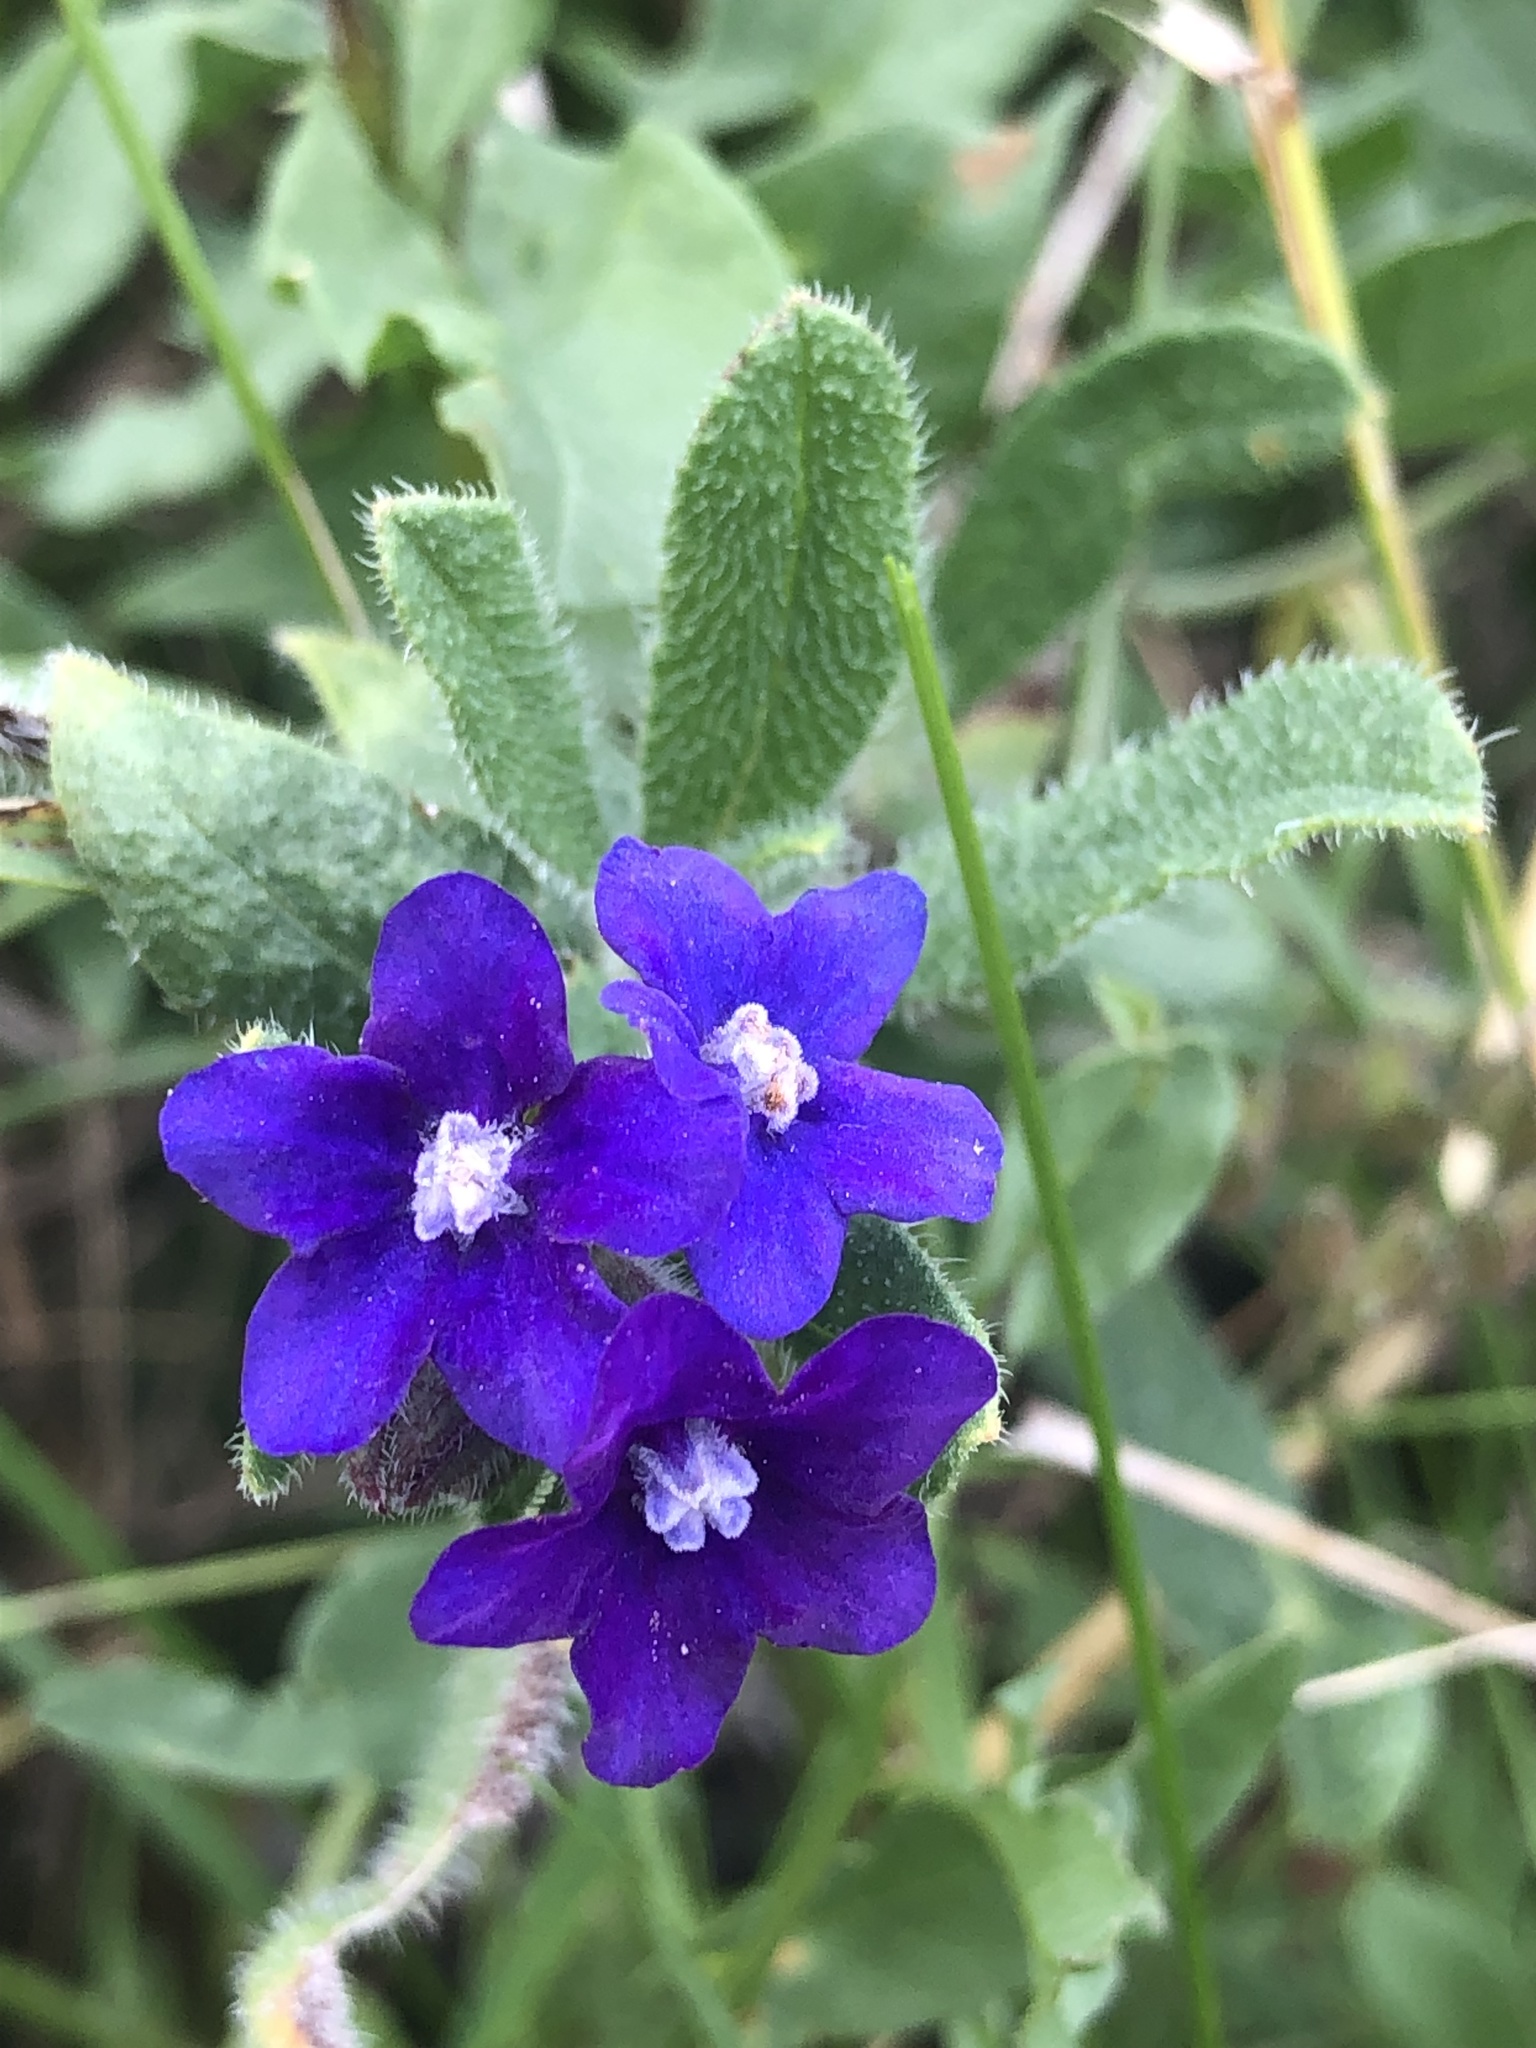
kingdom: Plantae
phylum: Tracheophyta
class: Magnoliopsida
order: Boraginales
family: Boraginaceae
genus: Anchusa
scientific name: Anchusa officinalis
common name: Alkanet
